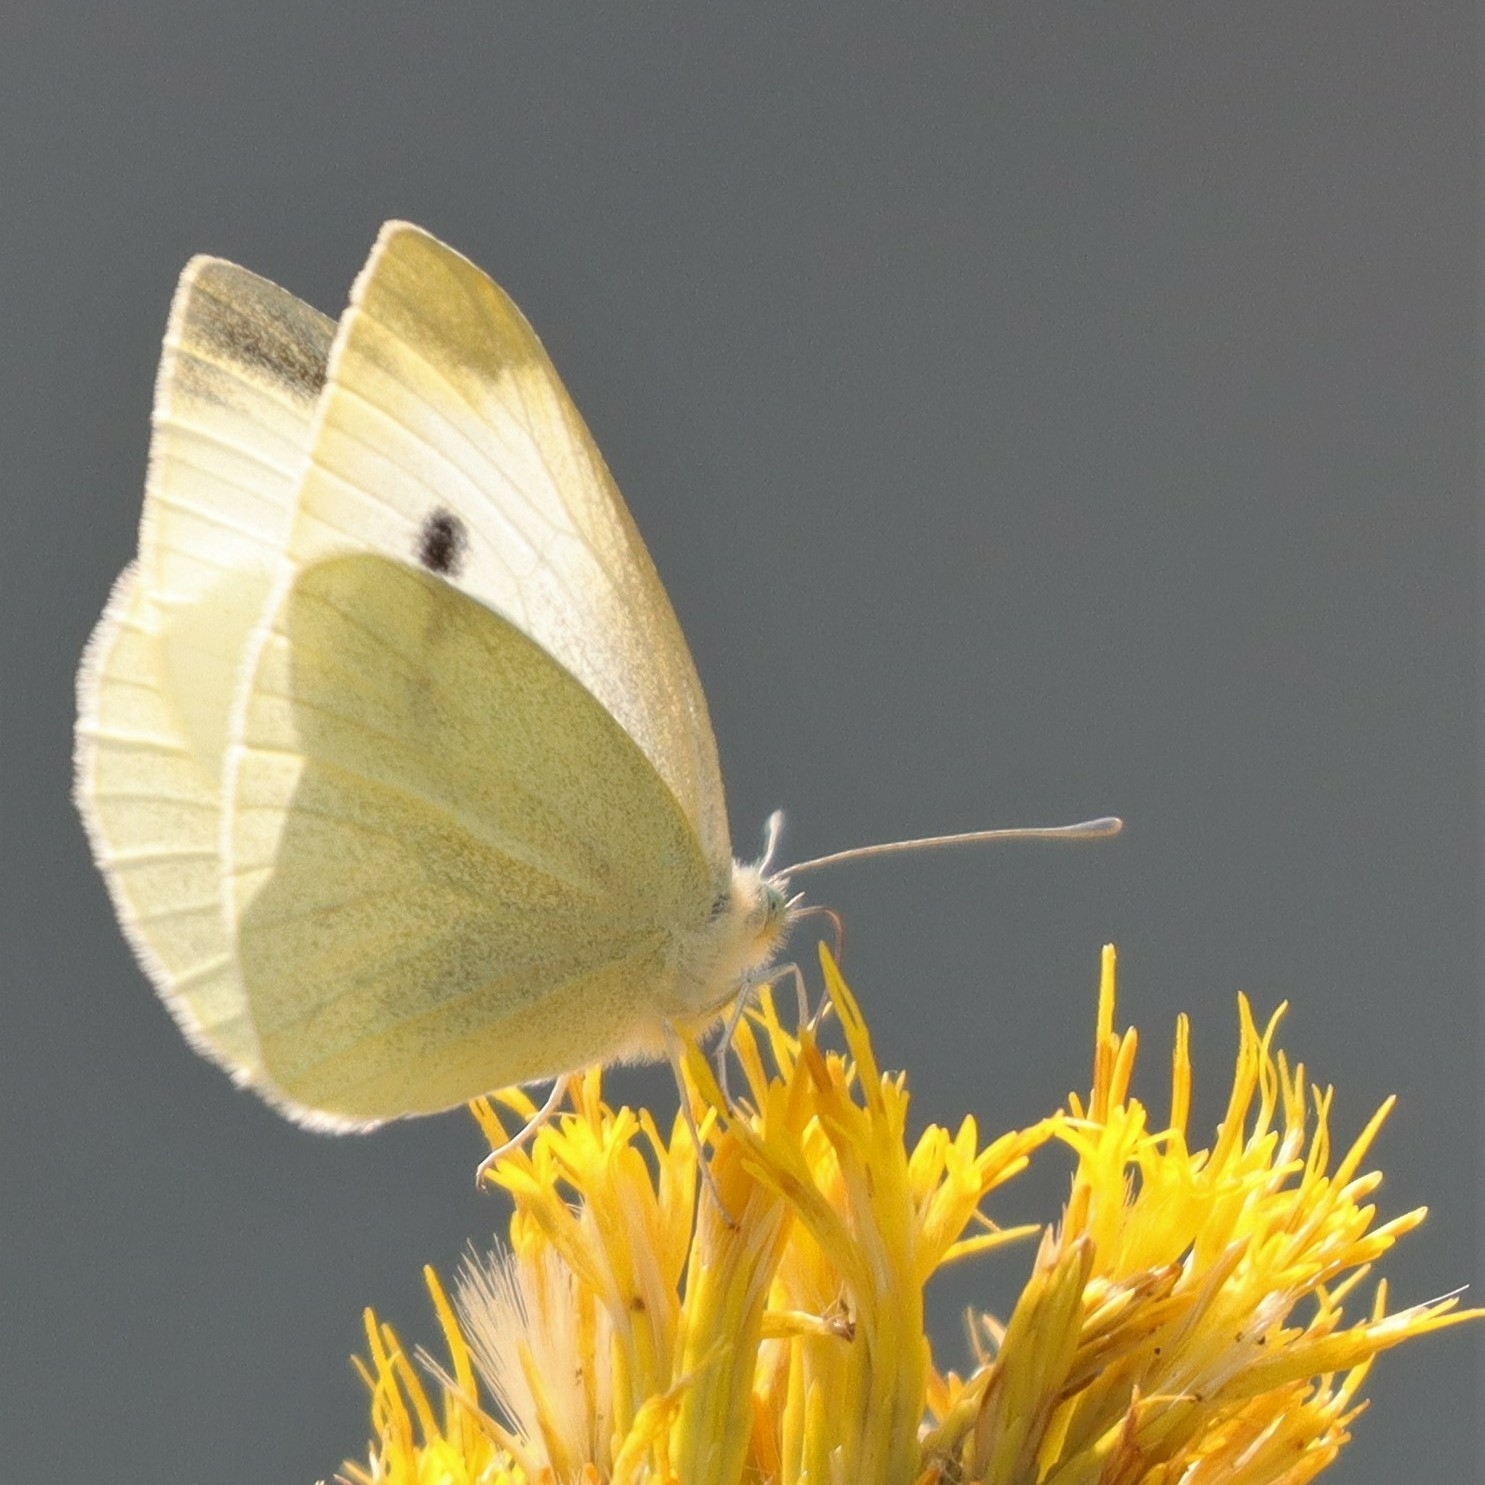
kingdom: Animalia
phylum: Arthropoda
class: Insecta
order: Lepidoptera
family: Pieridae
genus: Pieris
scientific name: Pieris rapae
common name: Small white
